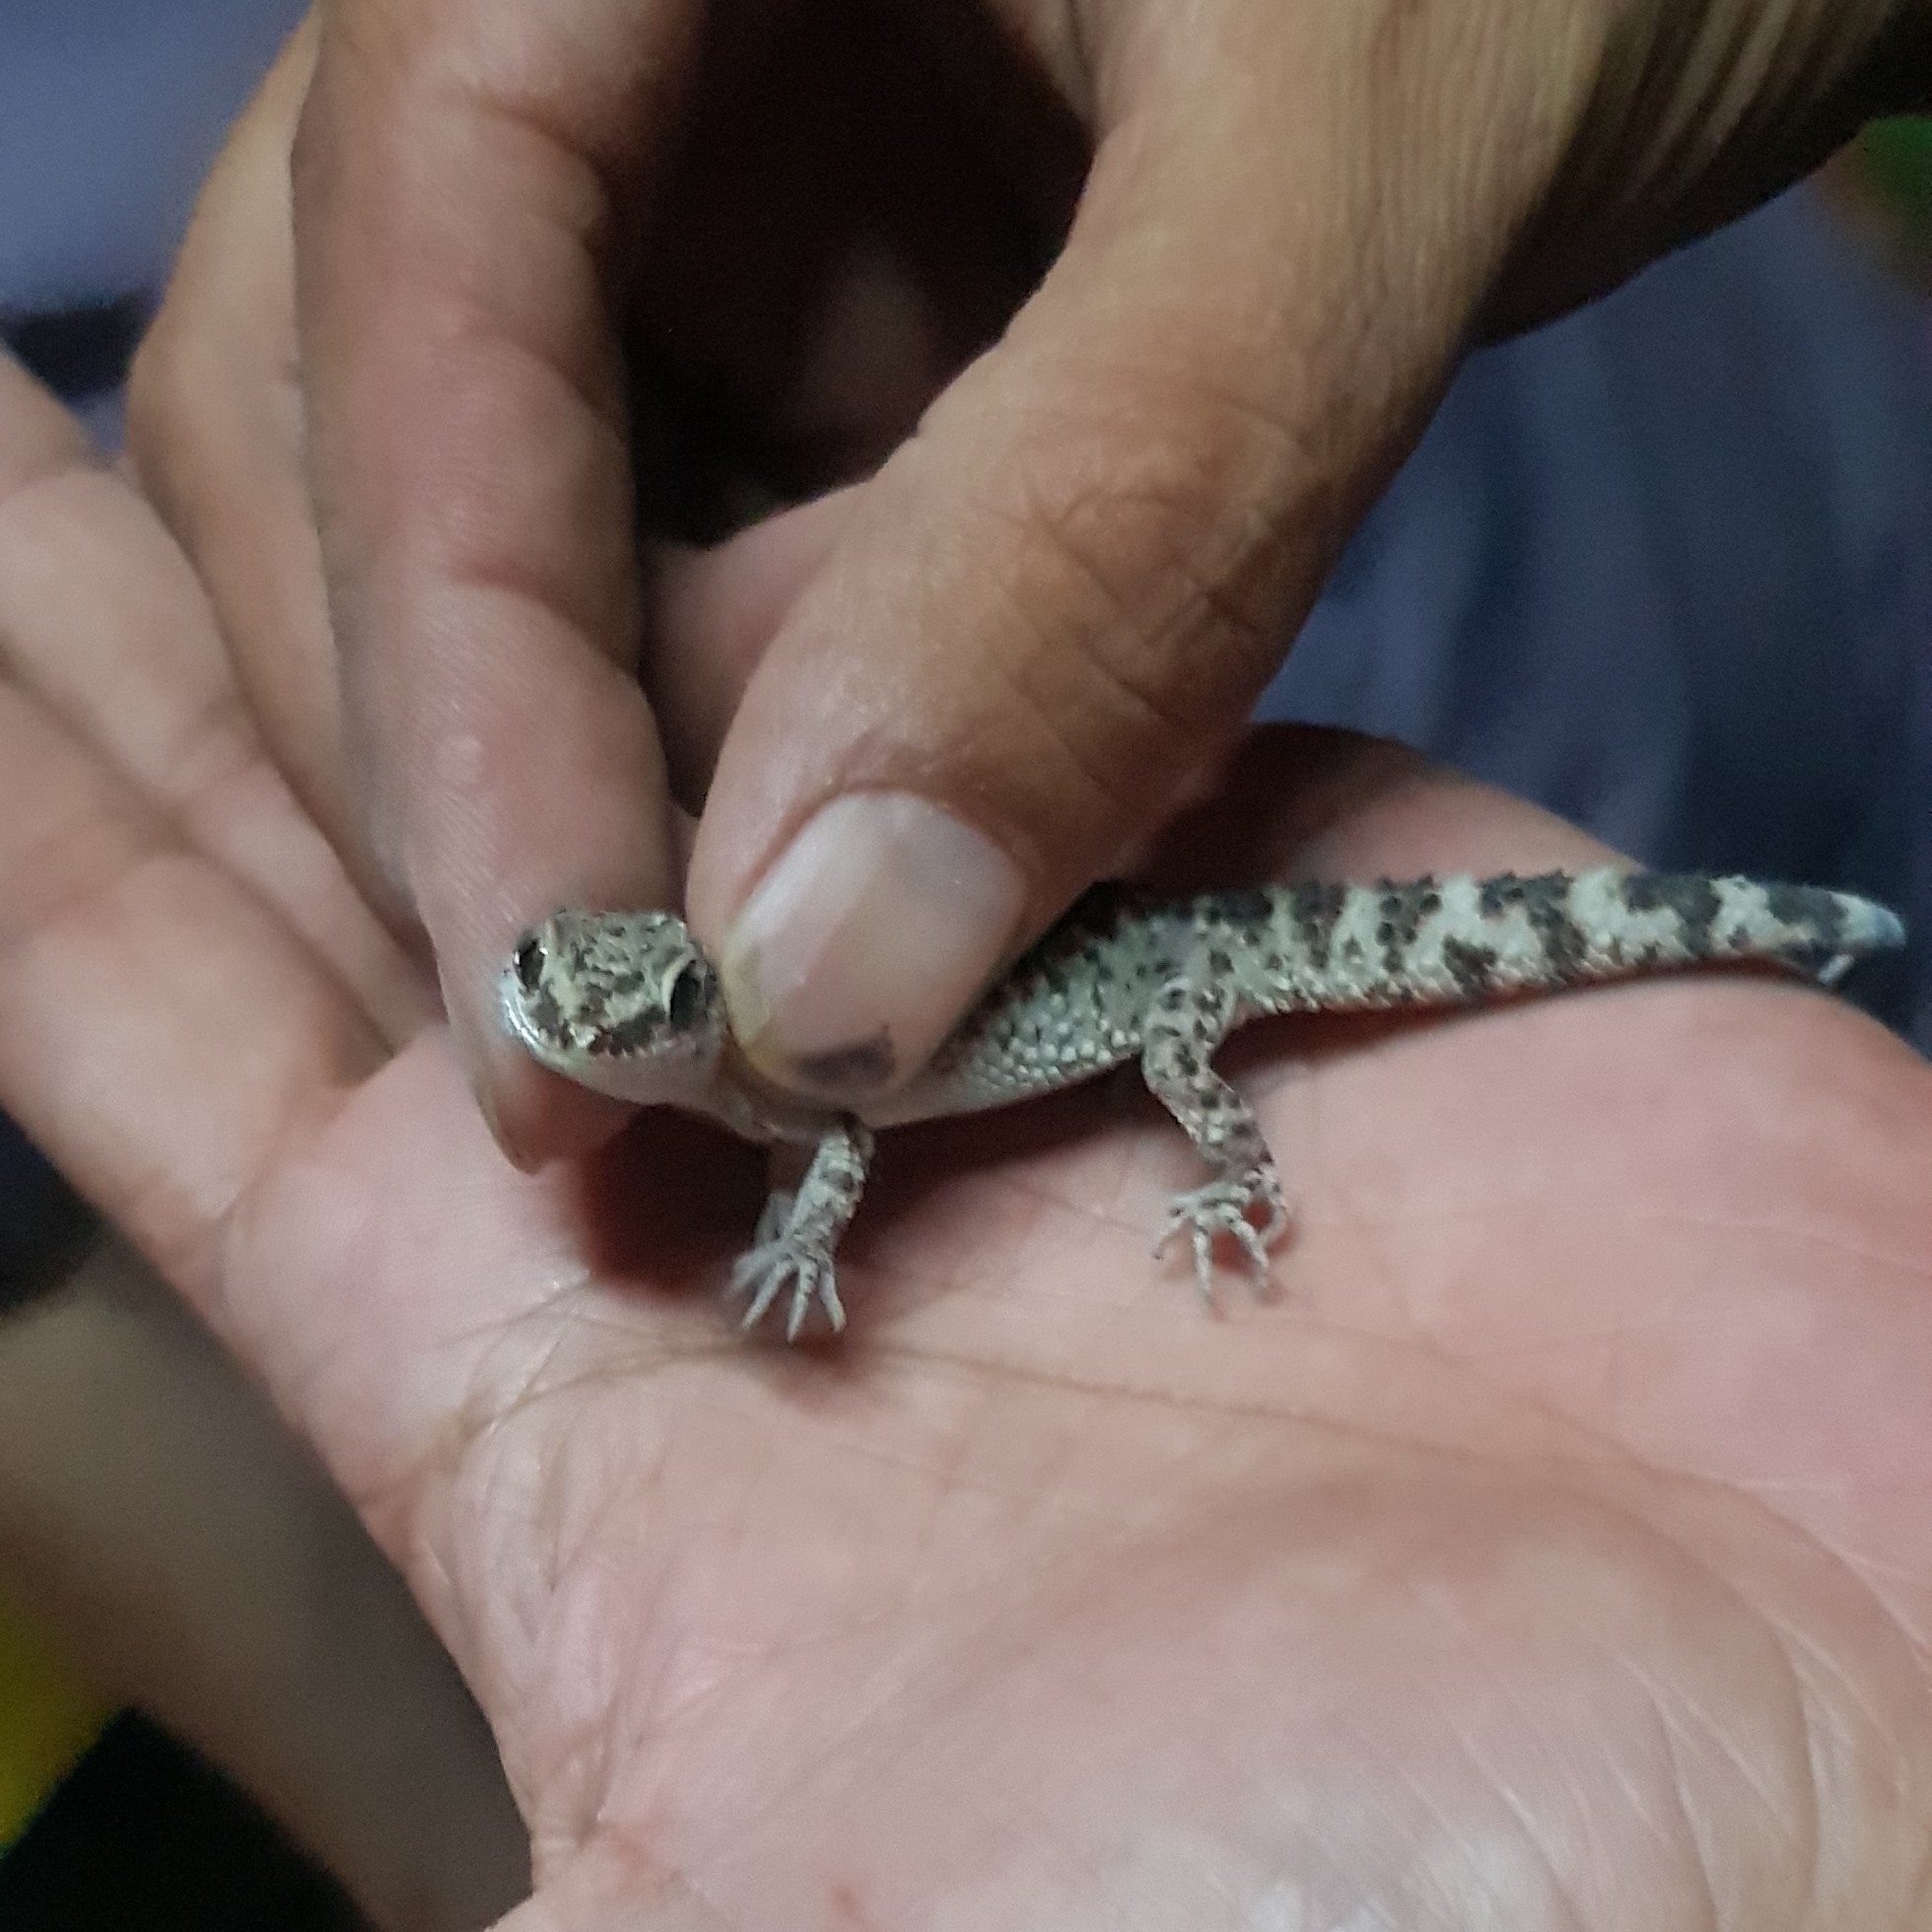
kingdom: Animalia
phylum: Chordata
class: Squamata
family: Phyllodactylidae
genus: Homonota
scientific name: Homonota horrida
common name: South american marked gecko
